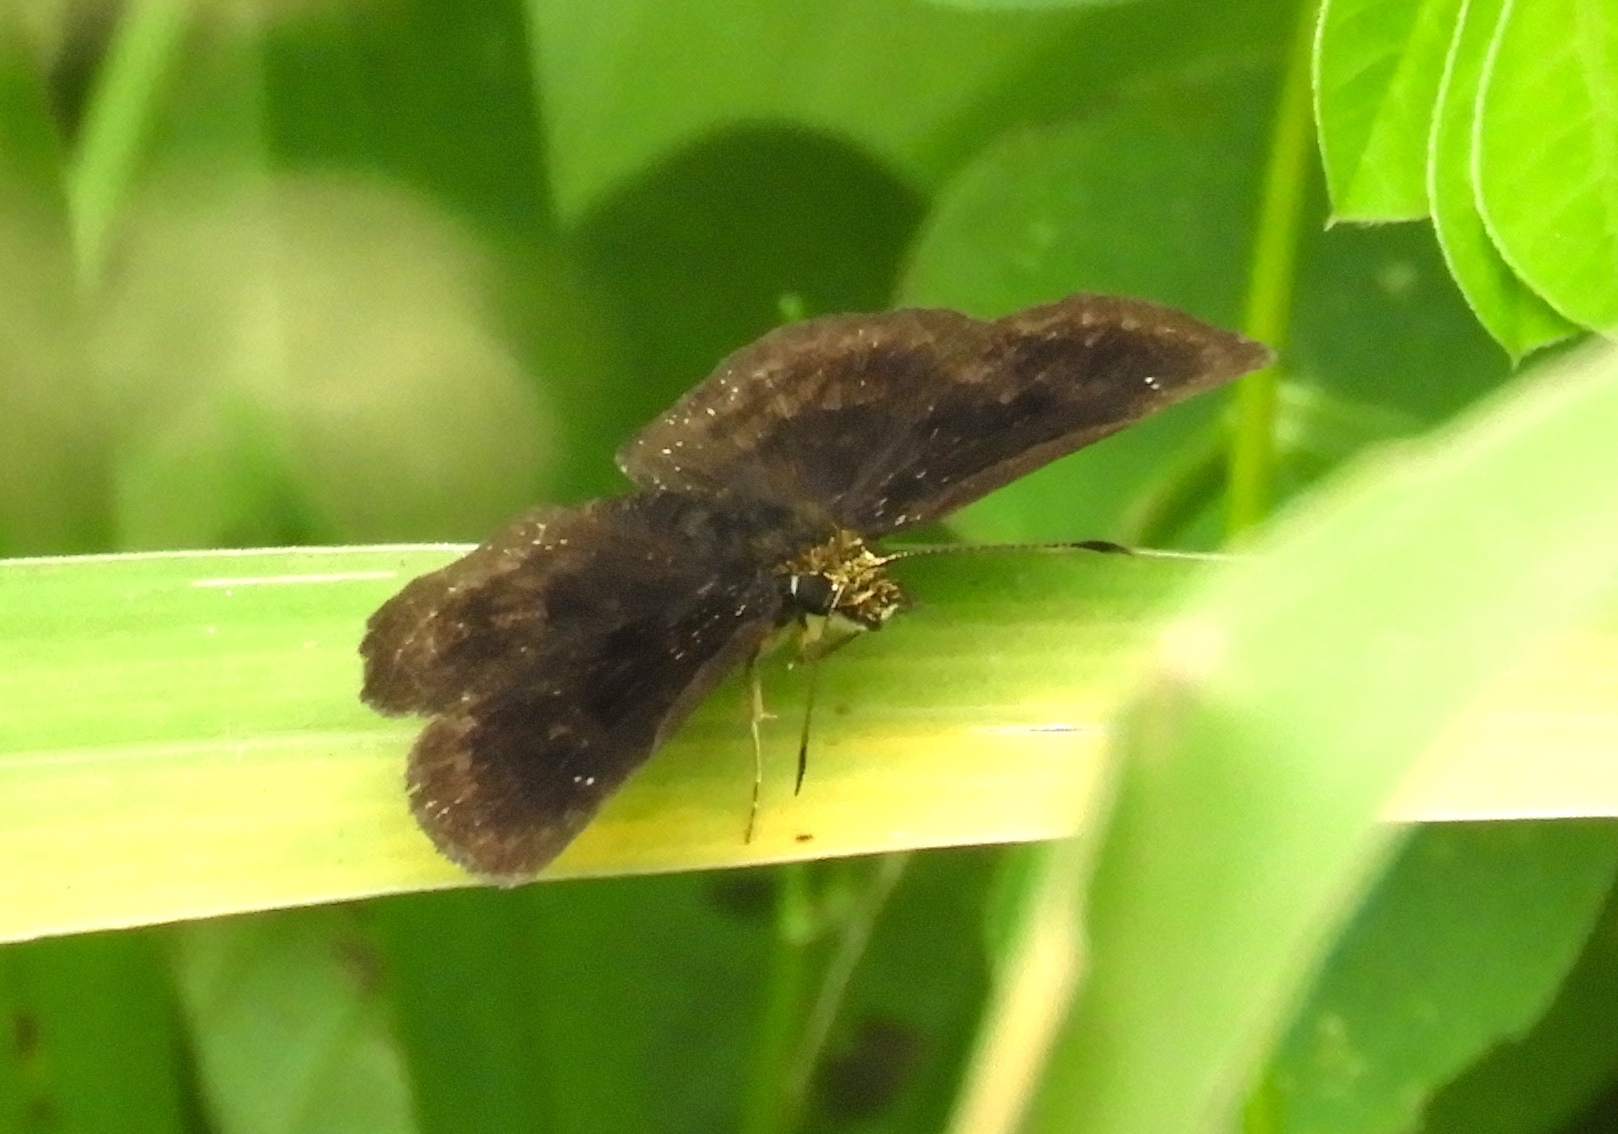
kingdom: Animalia
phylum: Arthropoda
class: Insecta
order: Lepidoptera
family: Hesperiidae
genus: Staphylus
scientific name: Staphylus vulgata
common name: Golden-snouted sootywing
